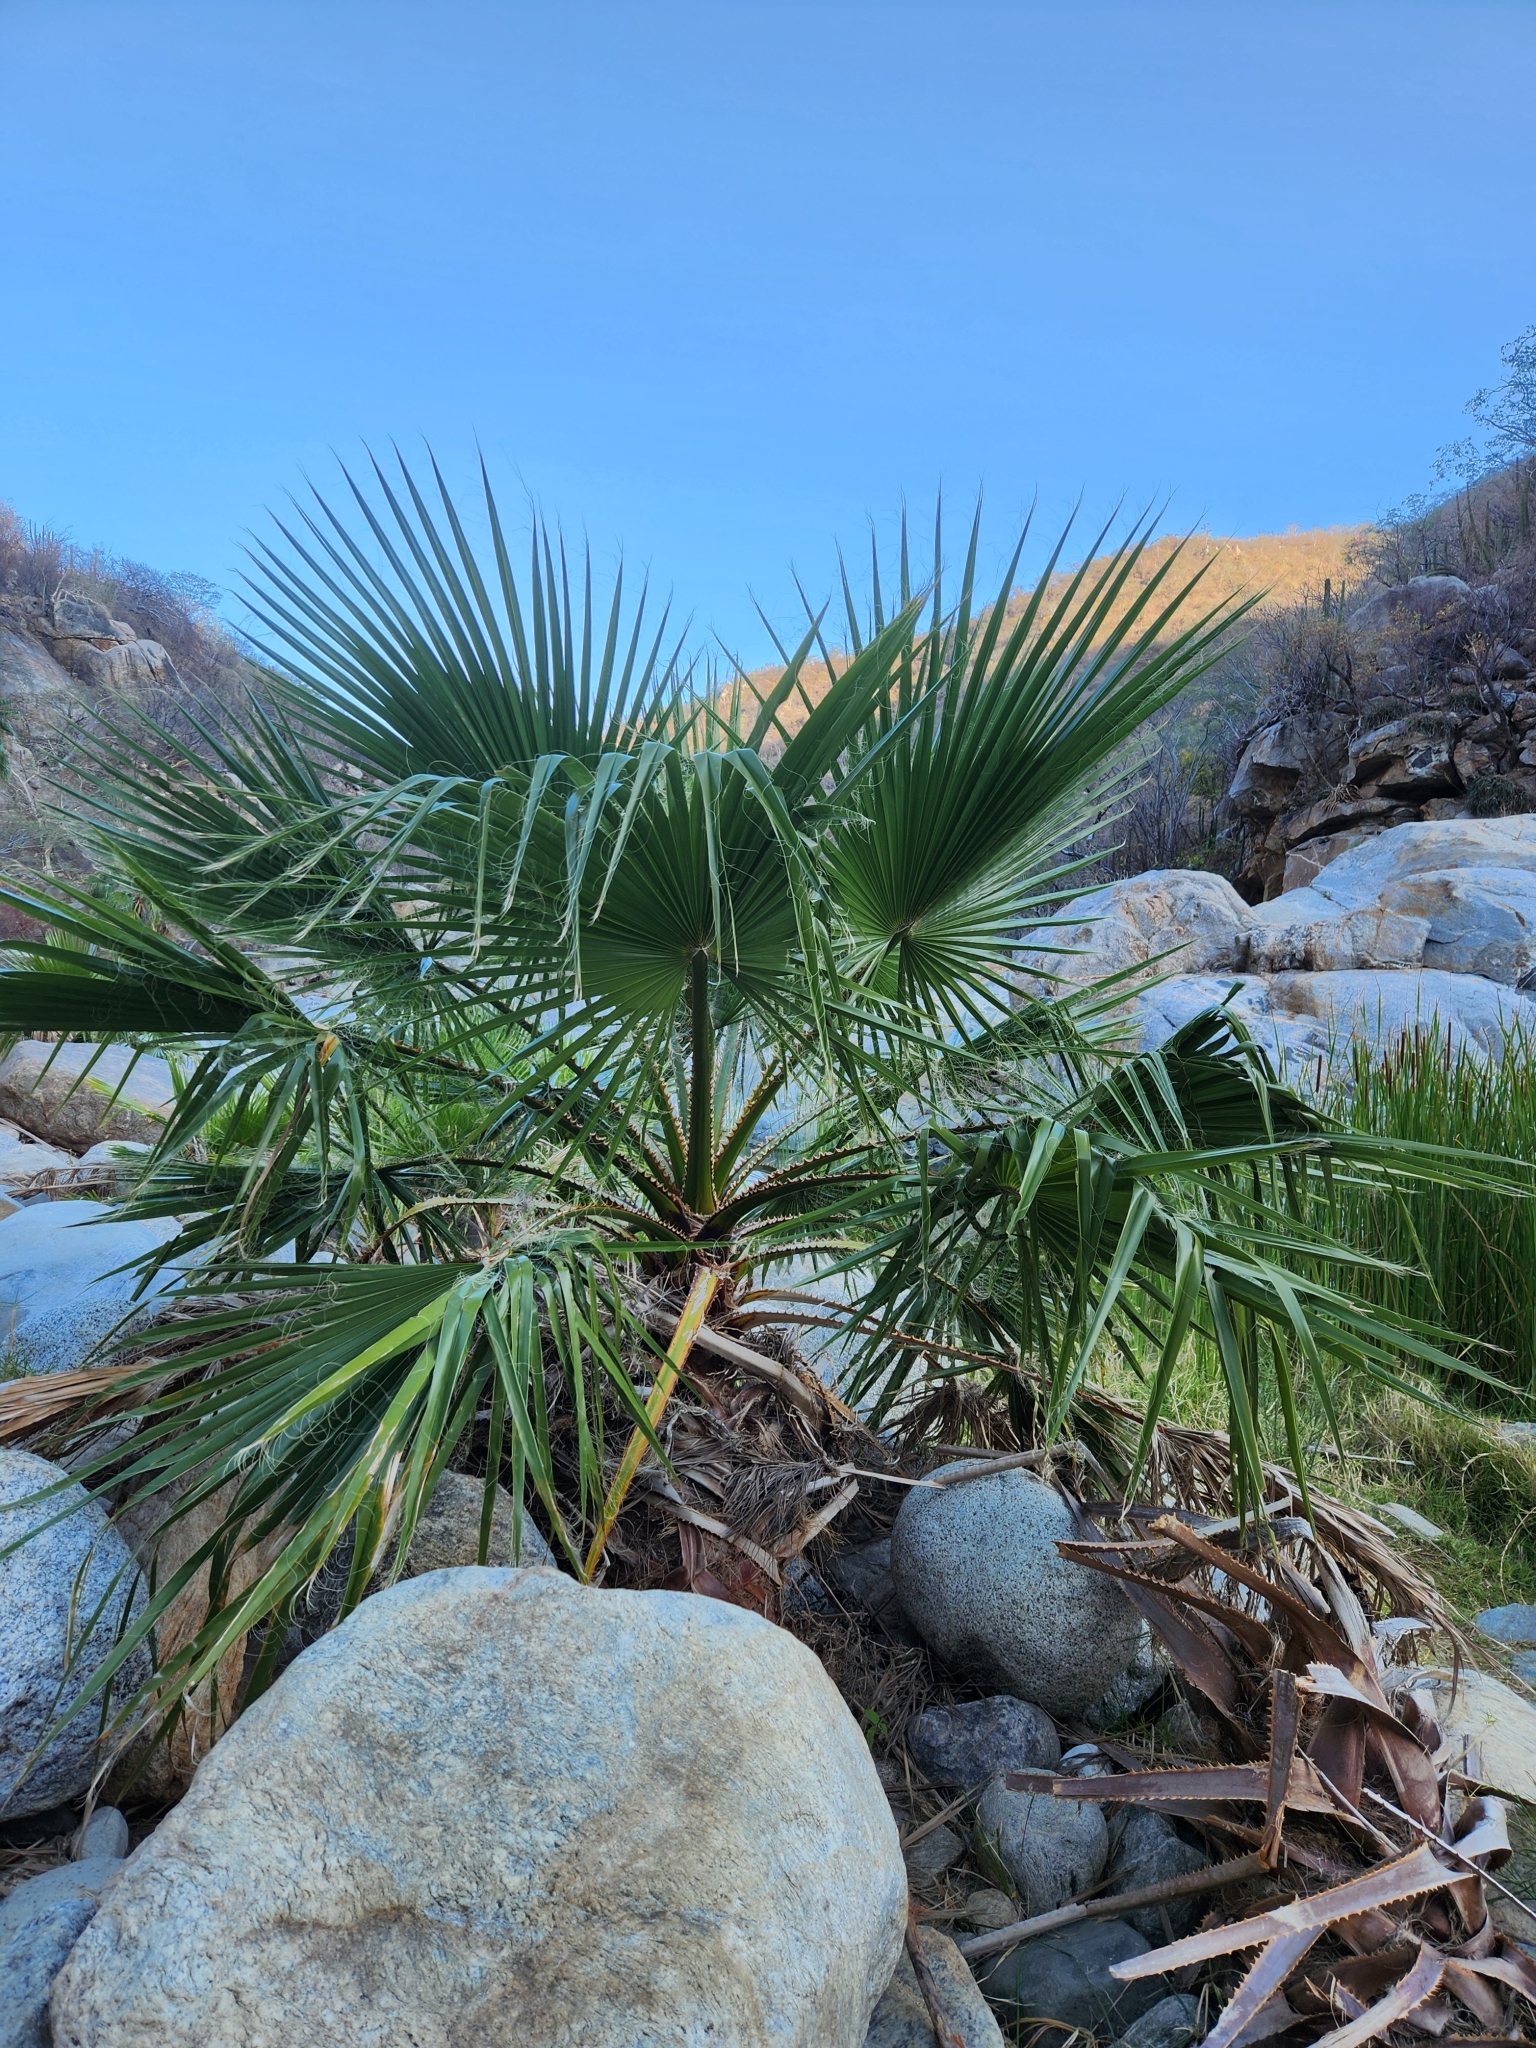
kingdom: Plantae
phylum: Tracheophyta
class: Liliopsida
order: Arecales
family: Arecaceae
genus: Washingtonia
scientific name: Washingtonia robusta
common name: Mexican fan palm
